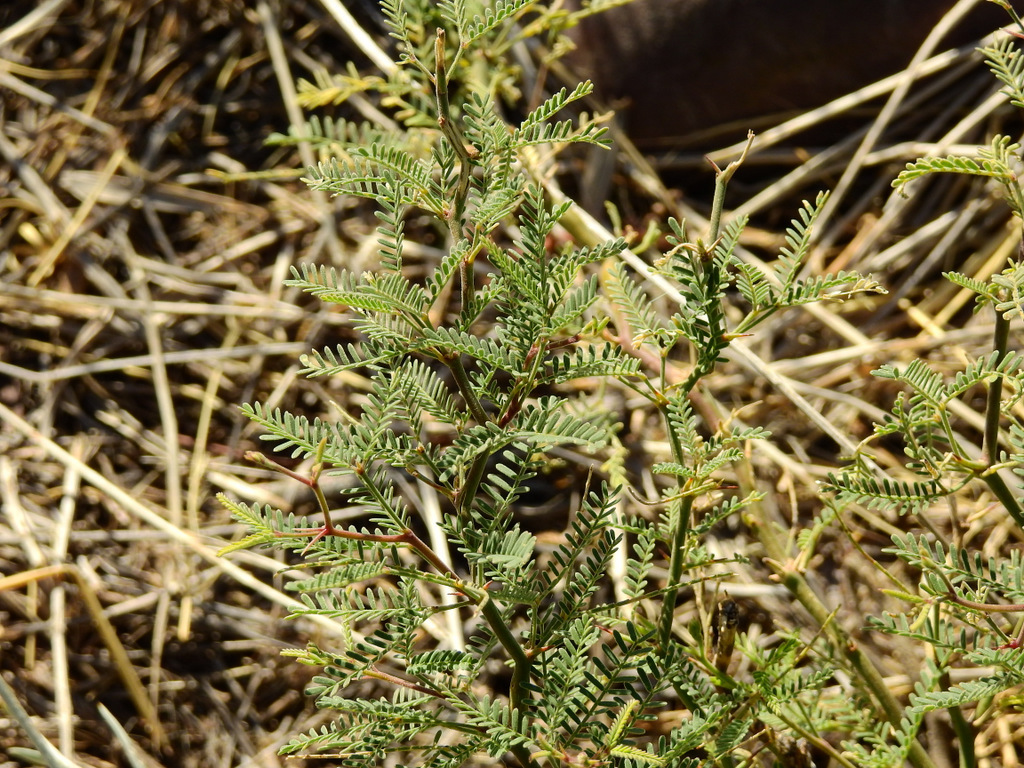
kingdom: Plantae
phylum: Tracheophyta
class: Magnoliopsida
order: Fabales
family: Fabaceae
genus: Prosopis
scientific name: Prosopis flexuosa
